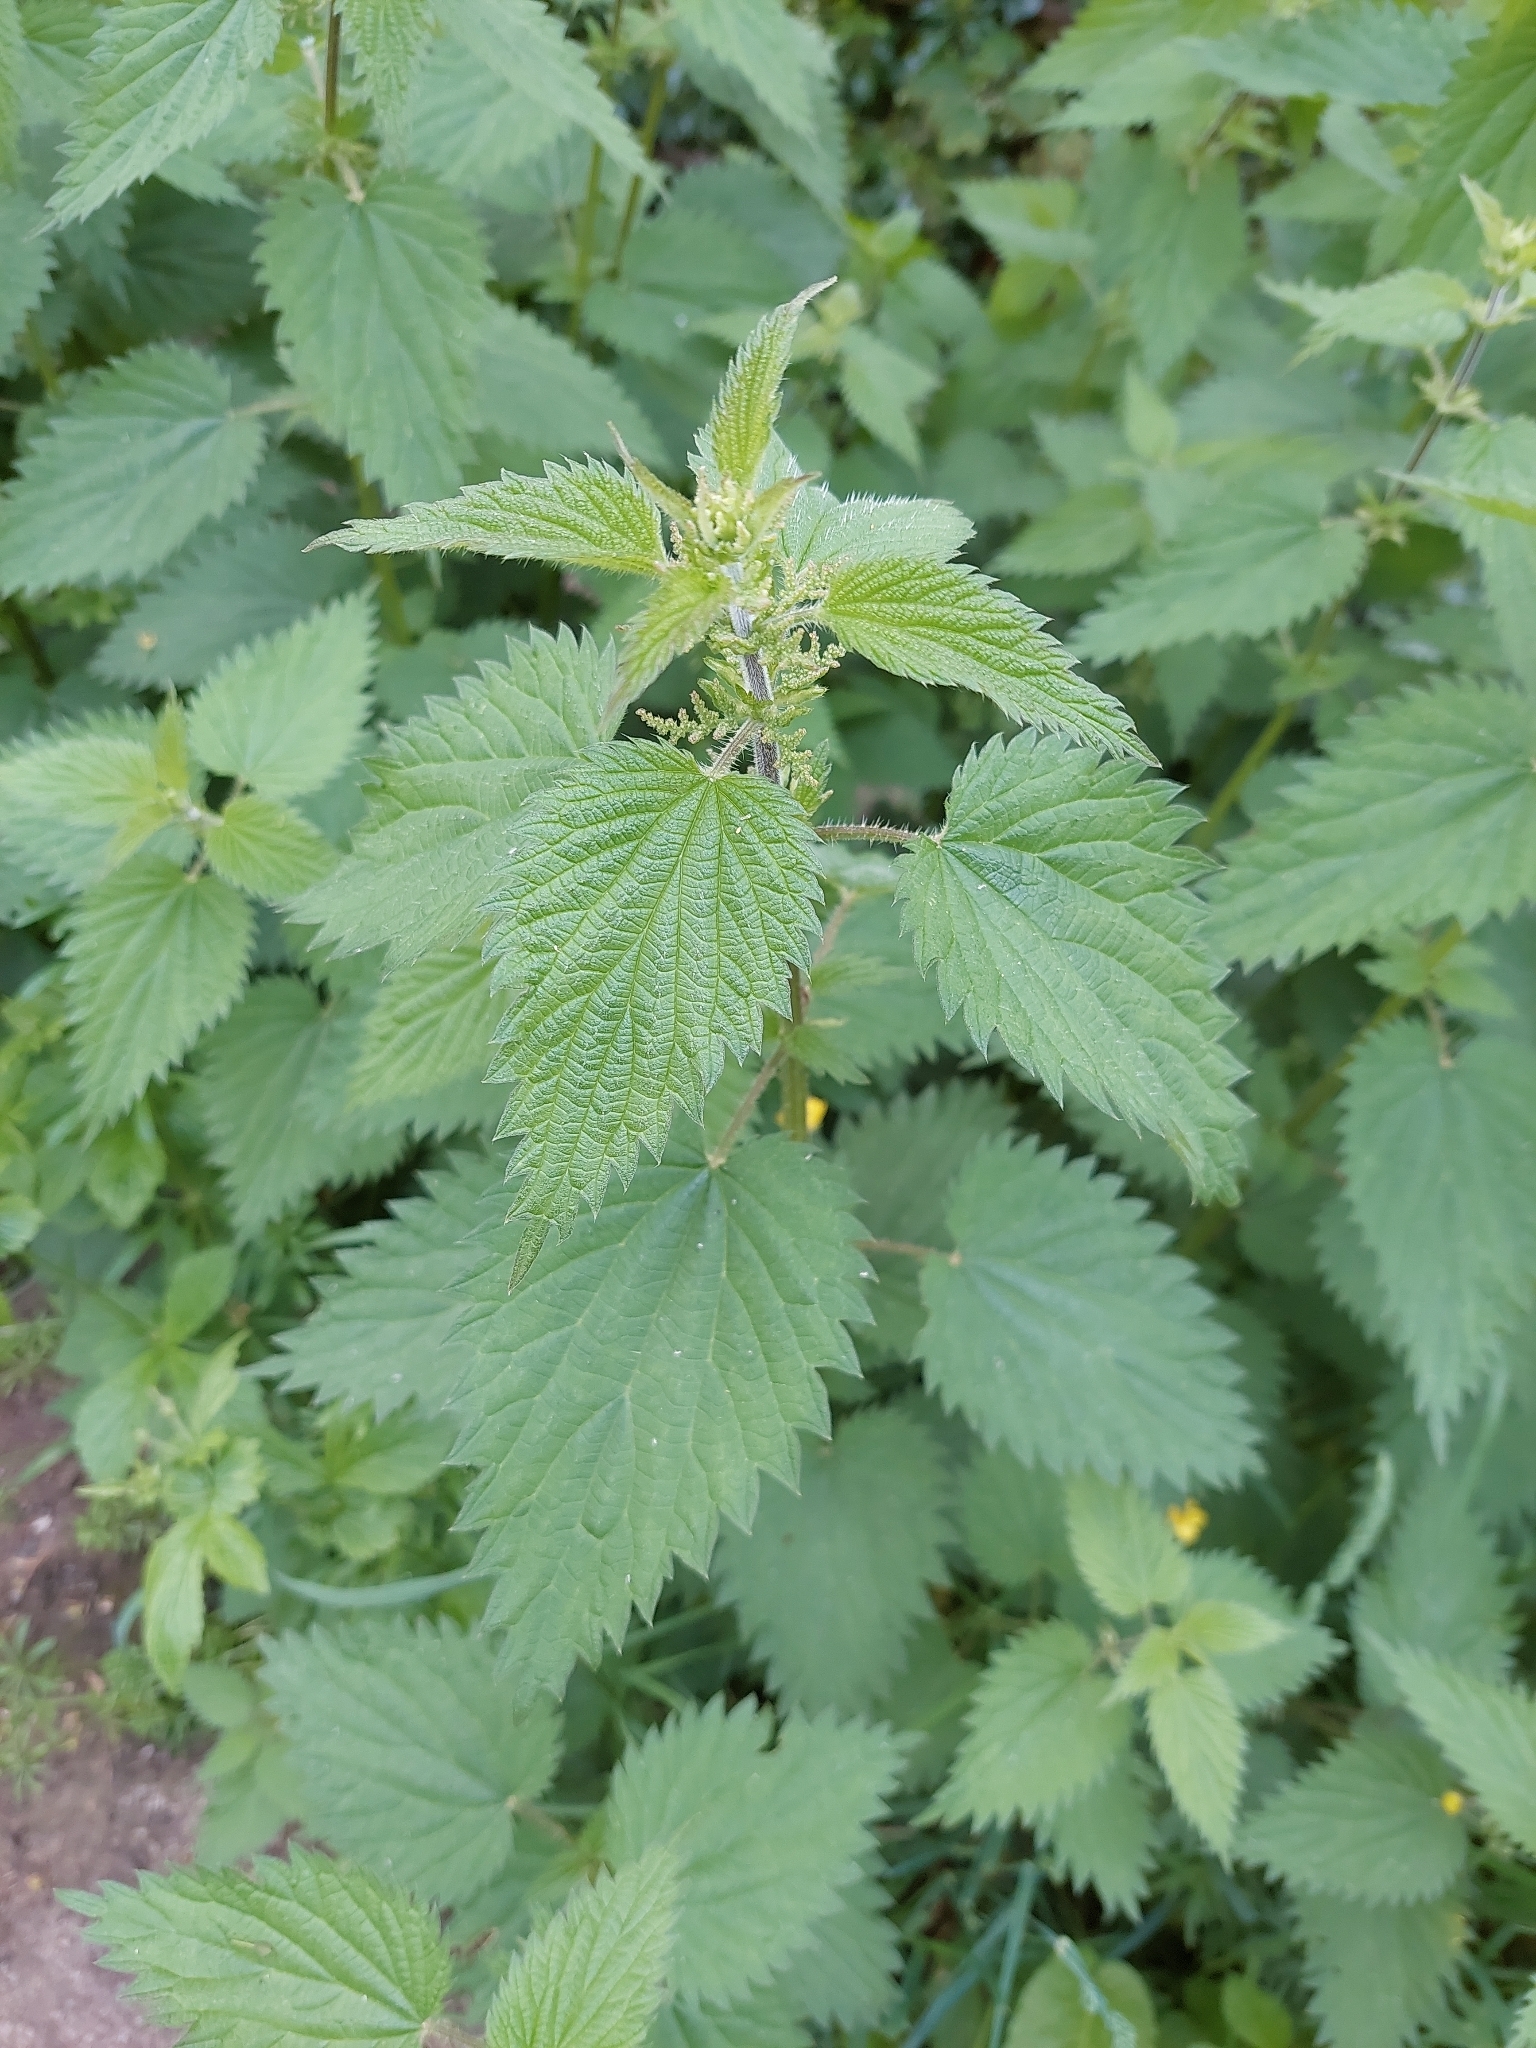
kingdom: Plantae
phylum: Tracheophyta
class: Magnoliopsida
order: Rosales
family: Urticaceae
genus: Urtica
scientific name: Urtica dioica
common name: Common nettle
